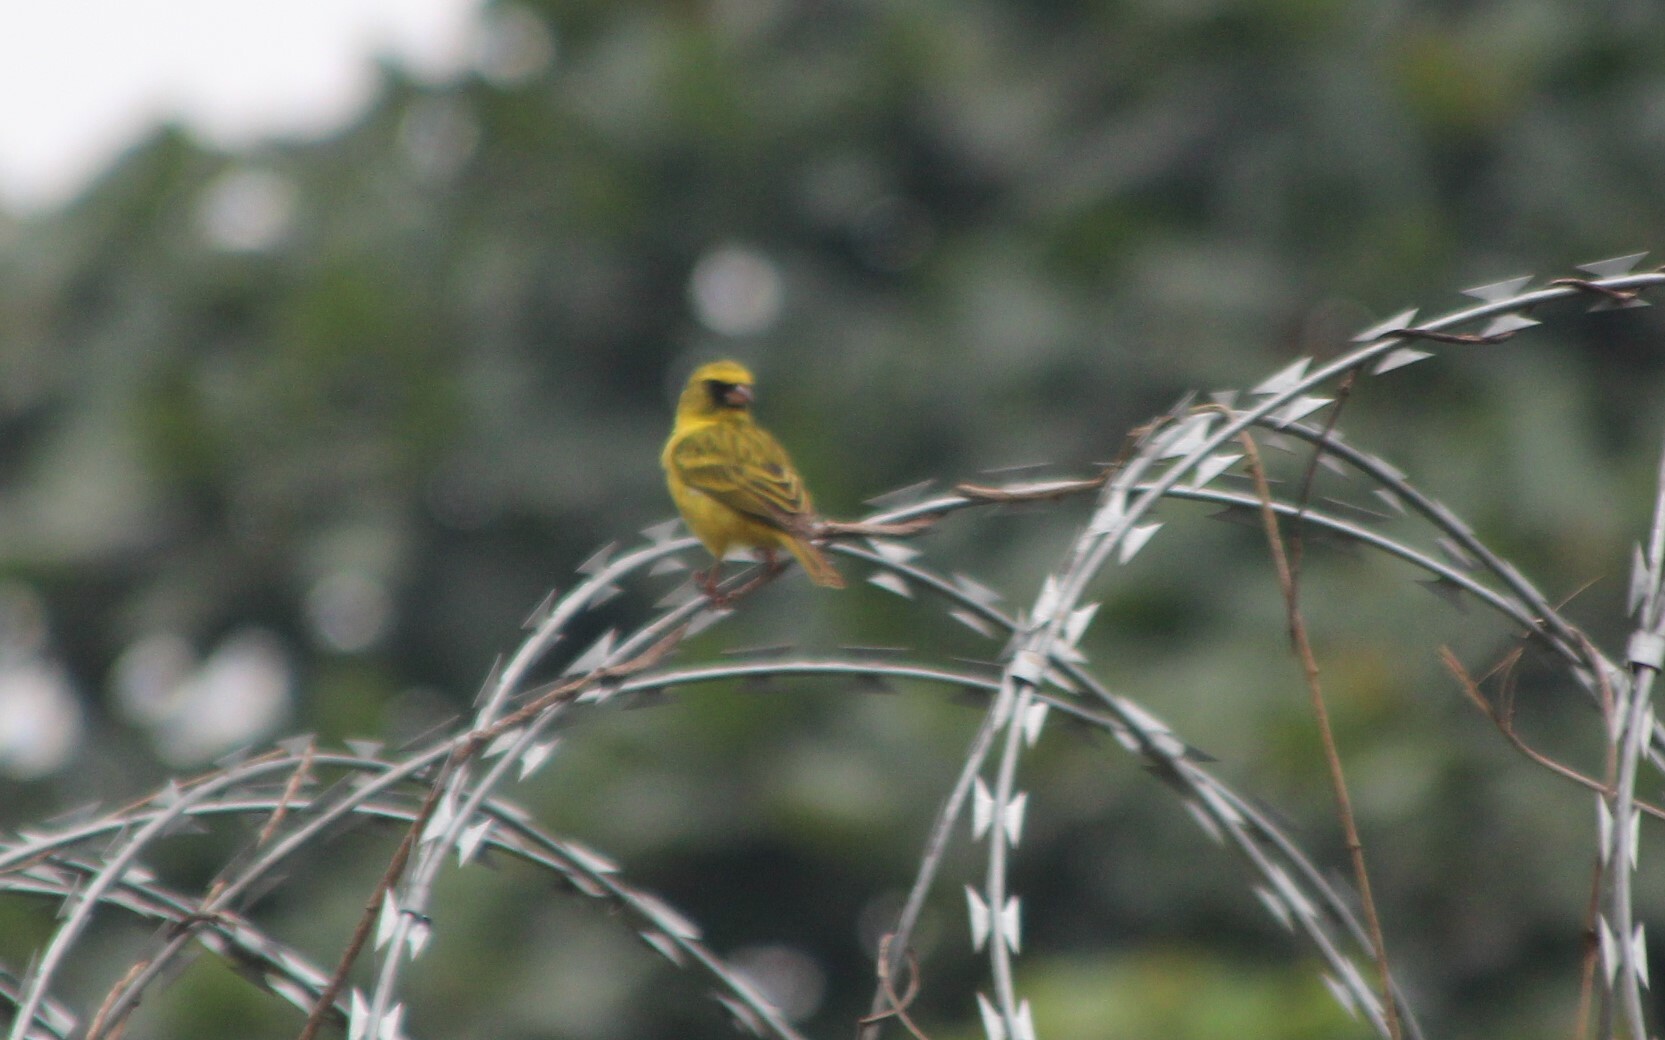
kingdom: Animalia
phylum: Chordata
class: Aves
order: Passeriformes
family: Fringillidae
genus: Crithagra
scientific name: Crithagra frontalis
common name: Western citril
